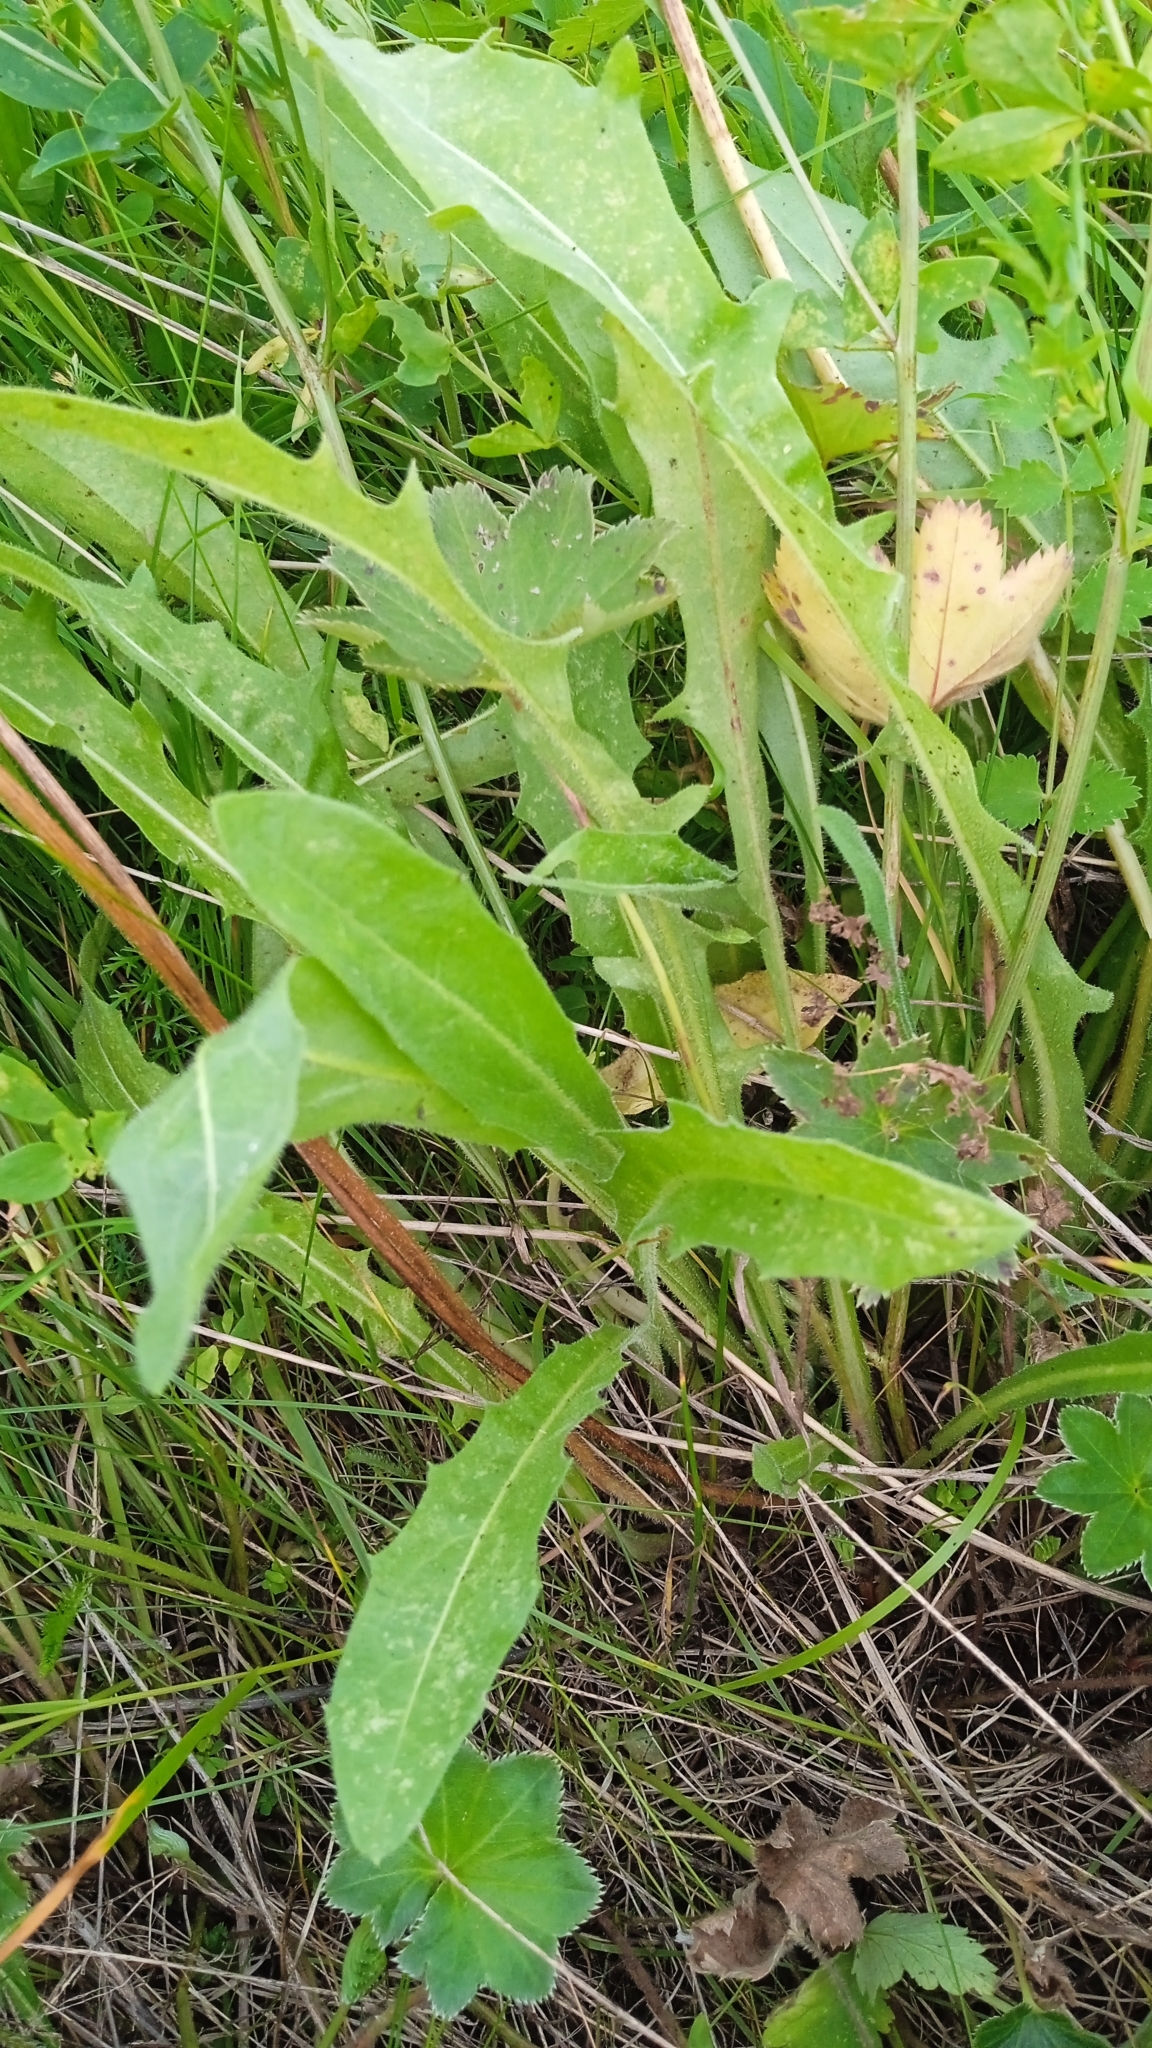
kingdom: Plantae
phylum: Tracheophyta
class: Magnoliopsida
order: Asterales
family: Asteraceae
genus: Leontodon
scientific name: Leontodon hispidus
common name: Rough hawkbit
